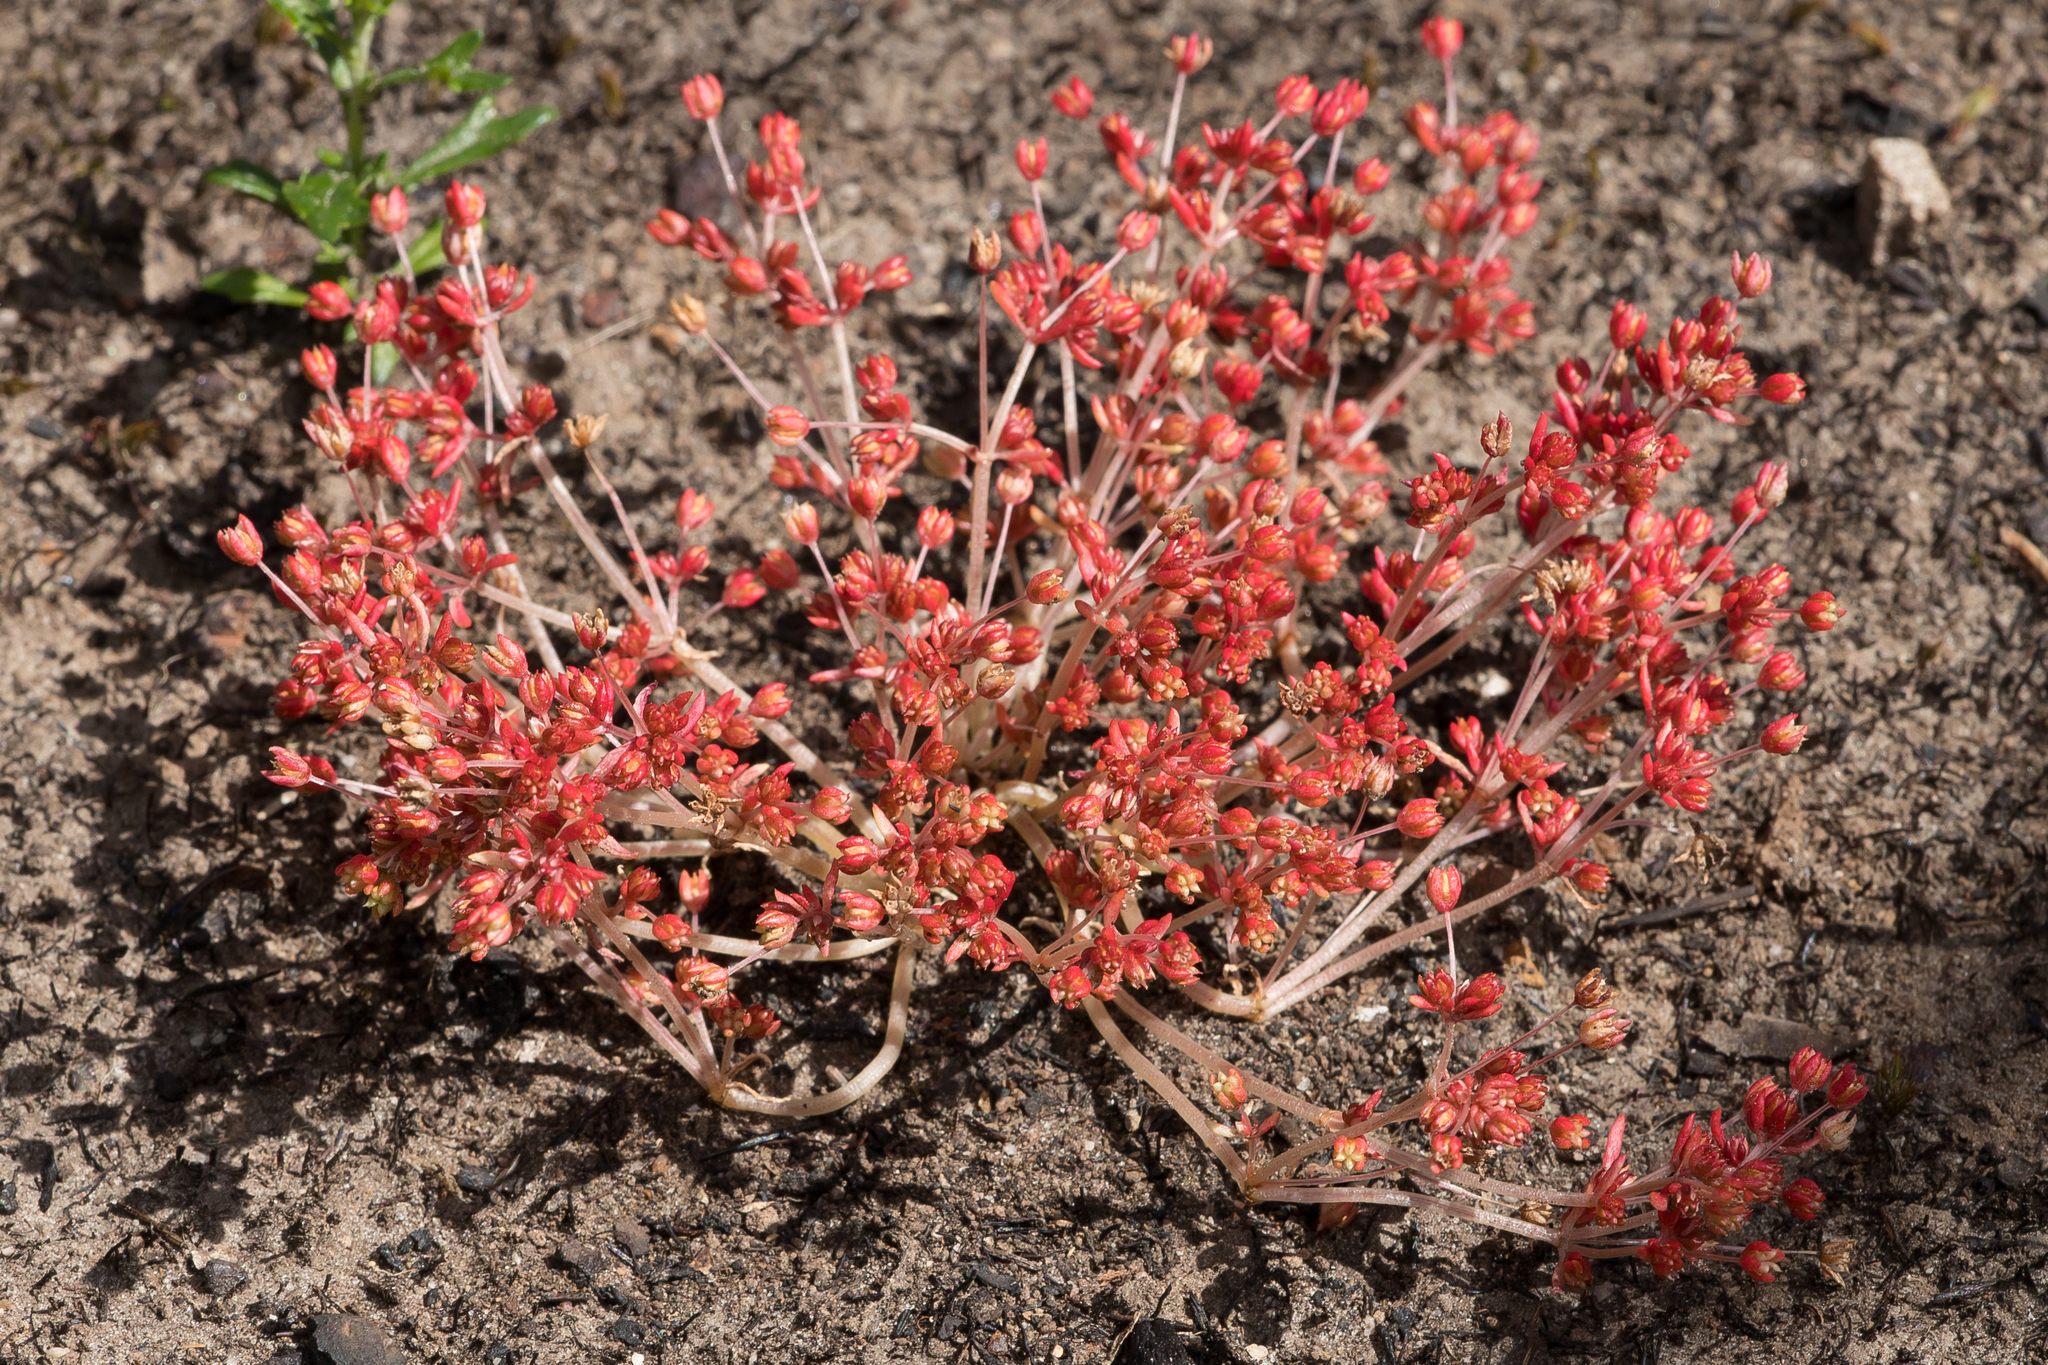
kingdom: Plantae
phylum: Tracheophyta
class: Magnoliopsida
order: Saxifragales
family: Crassulaceae
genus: Crassula
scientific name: Crassula decumbens
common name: Scilly pigmyweed
